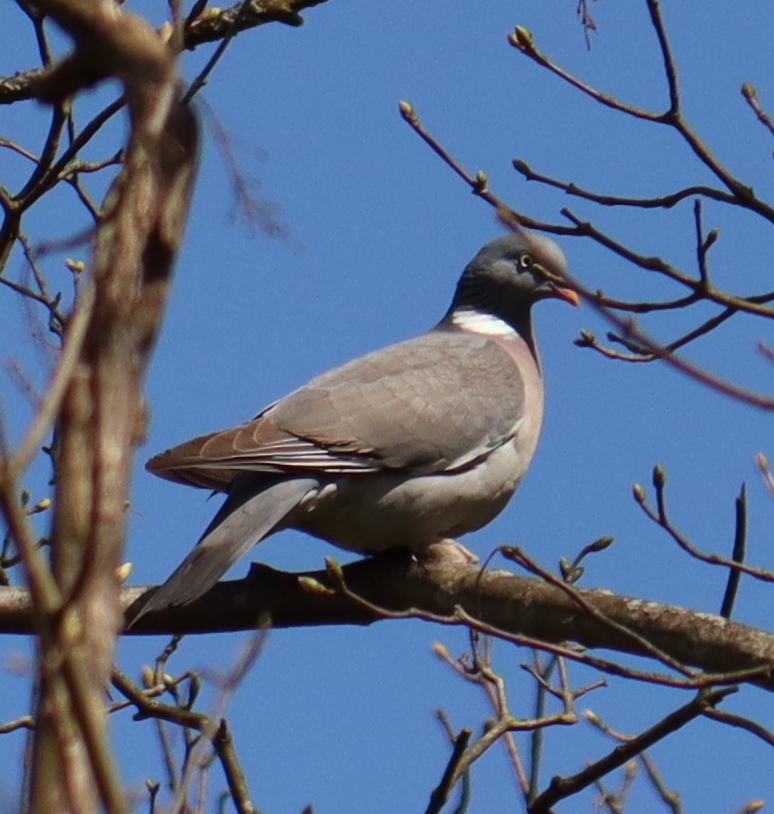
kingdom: Animalia
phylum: Chordata
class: Aves
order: Columbiformes
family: Columbidae
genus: Columba
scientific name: Columba palumbus
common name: Common wood pigeon
